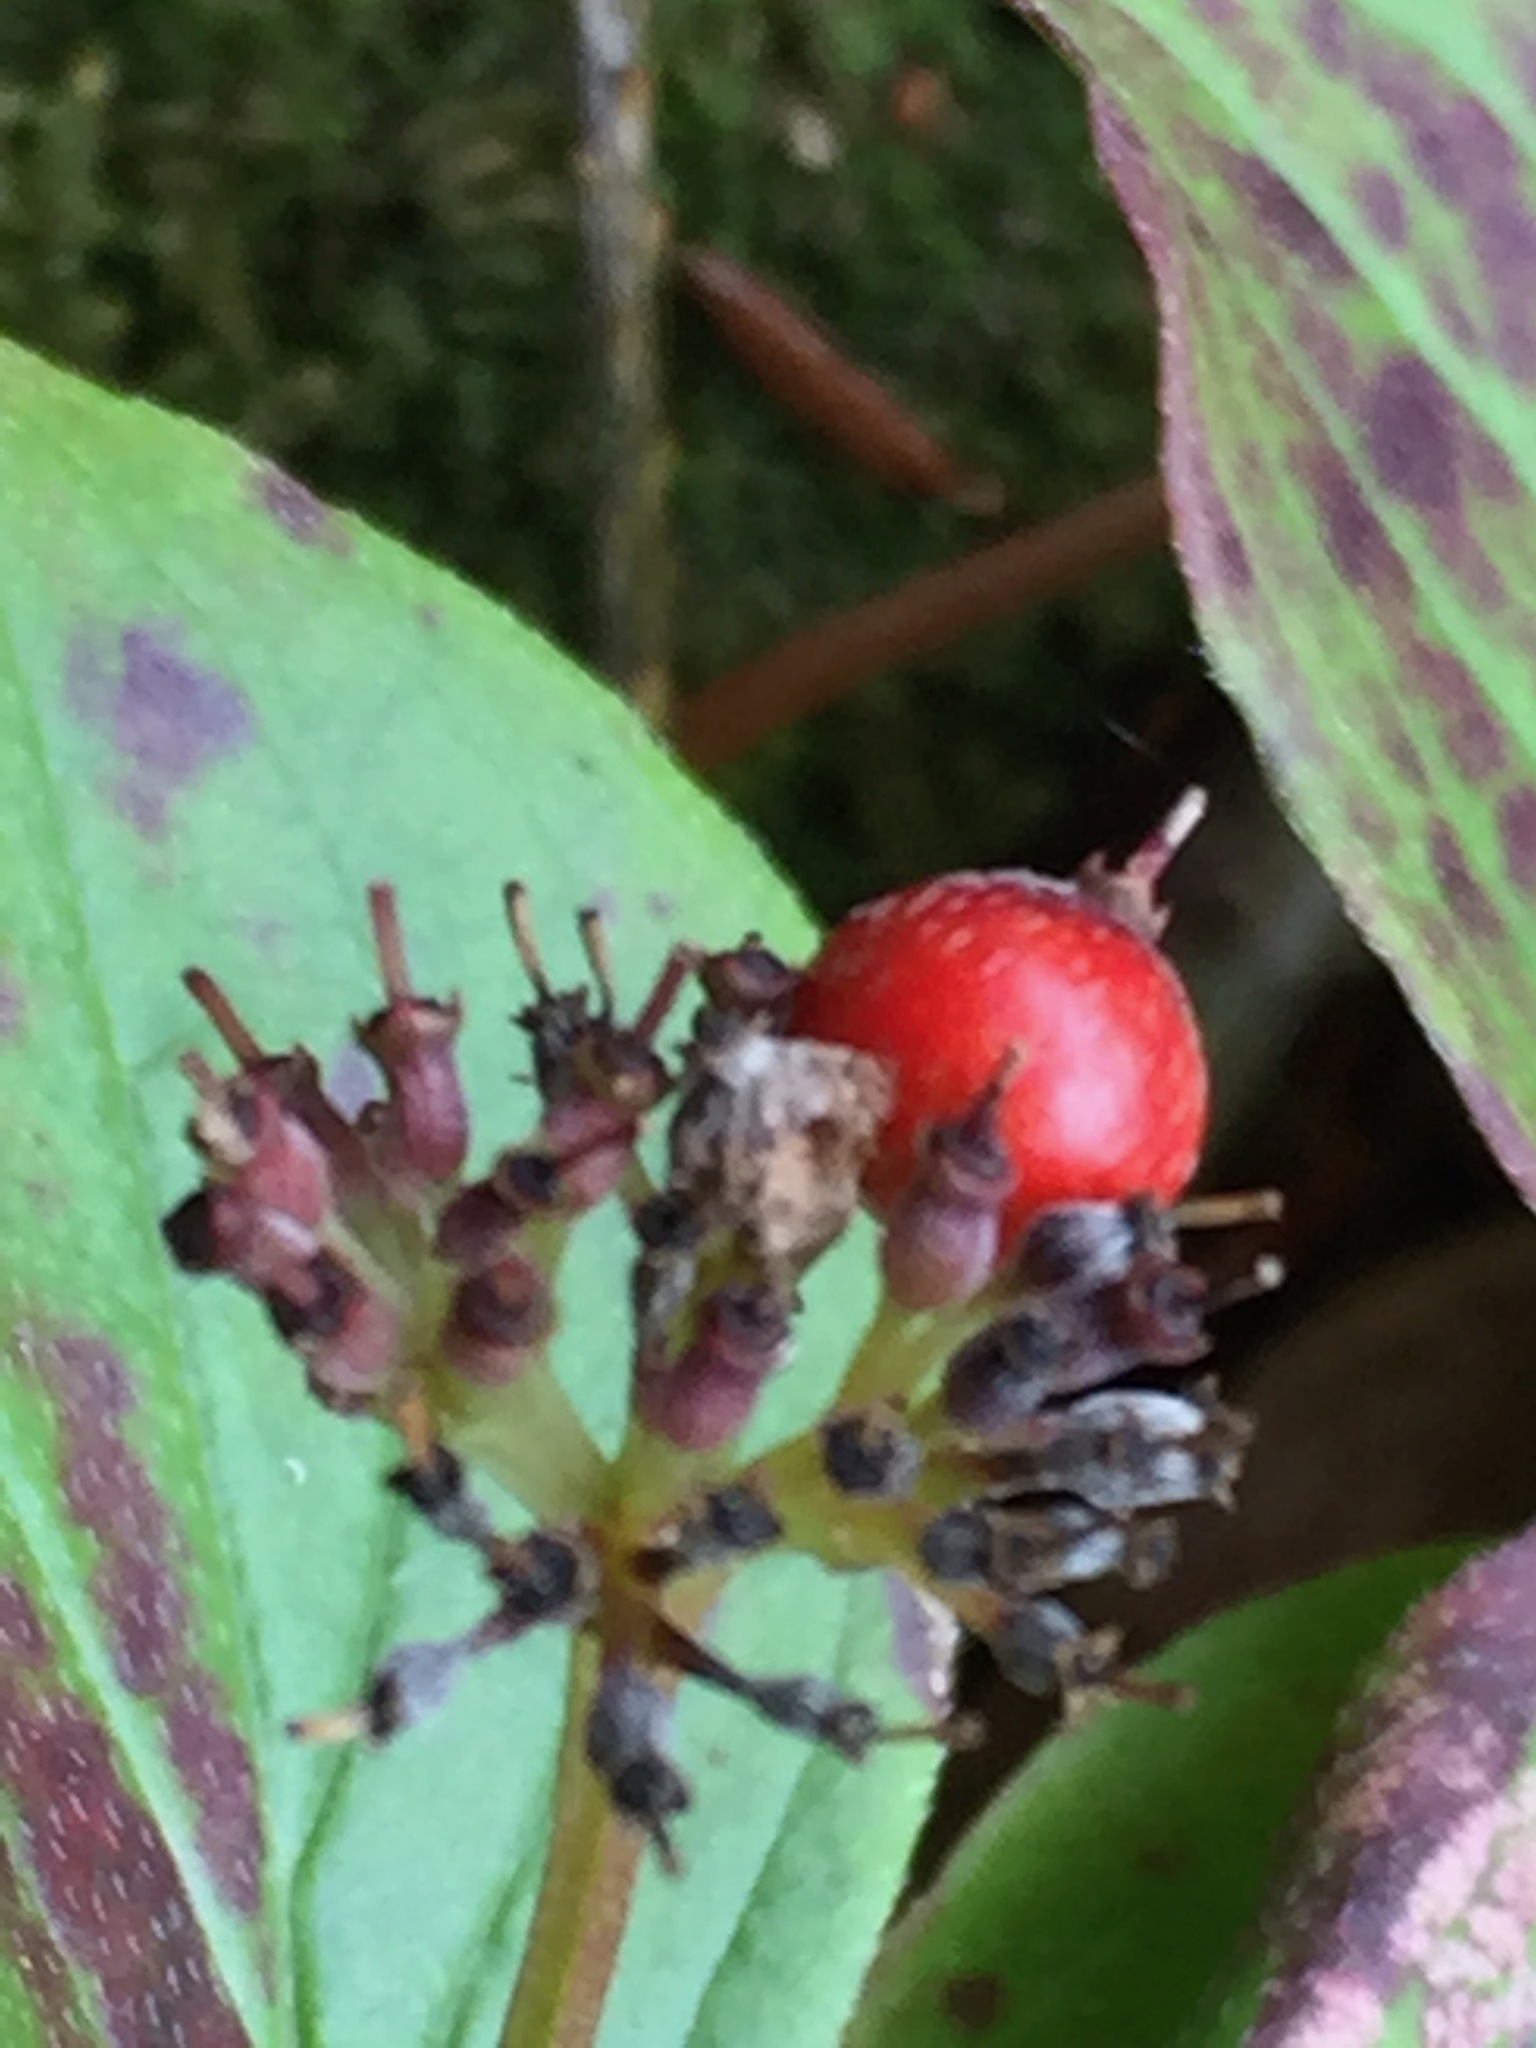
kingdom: Plantae
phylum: Tracheophyta
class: Magnoliopsida
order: Cornales
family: Cornaceae
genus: Cornus
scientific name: Cornus canadensis
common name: Creeping dogwood
